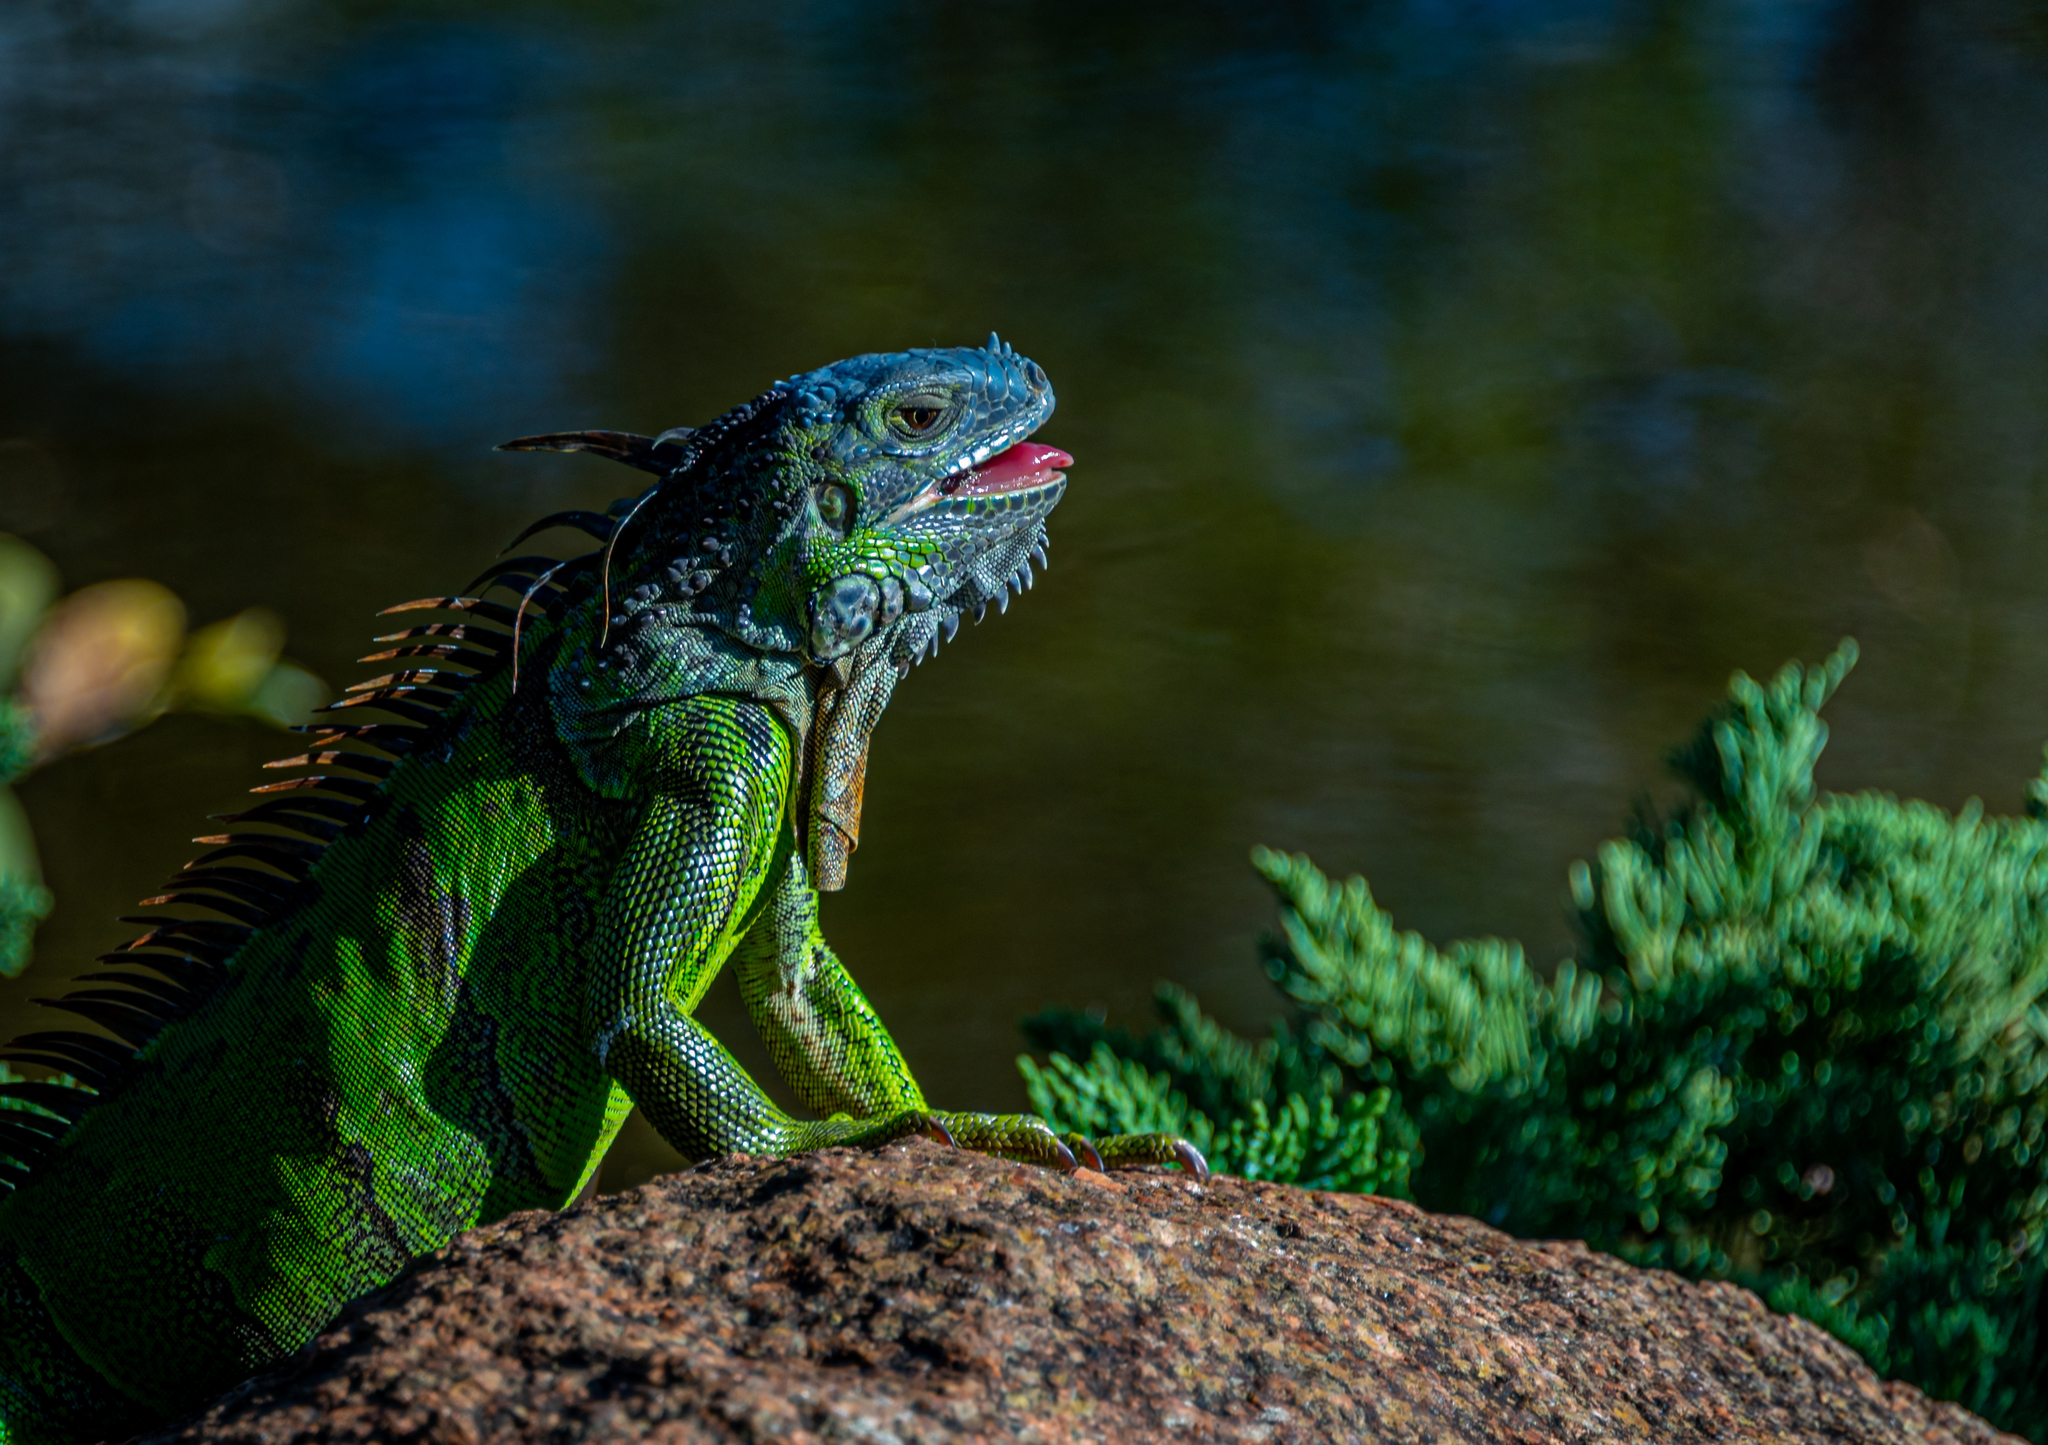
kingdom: Animalia
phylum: Chordata
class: Squamata
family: Iguanidae
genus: Iguana
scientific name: Iguana iguana
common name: Green iguana
